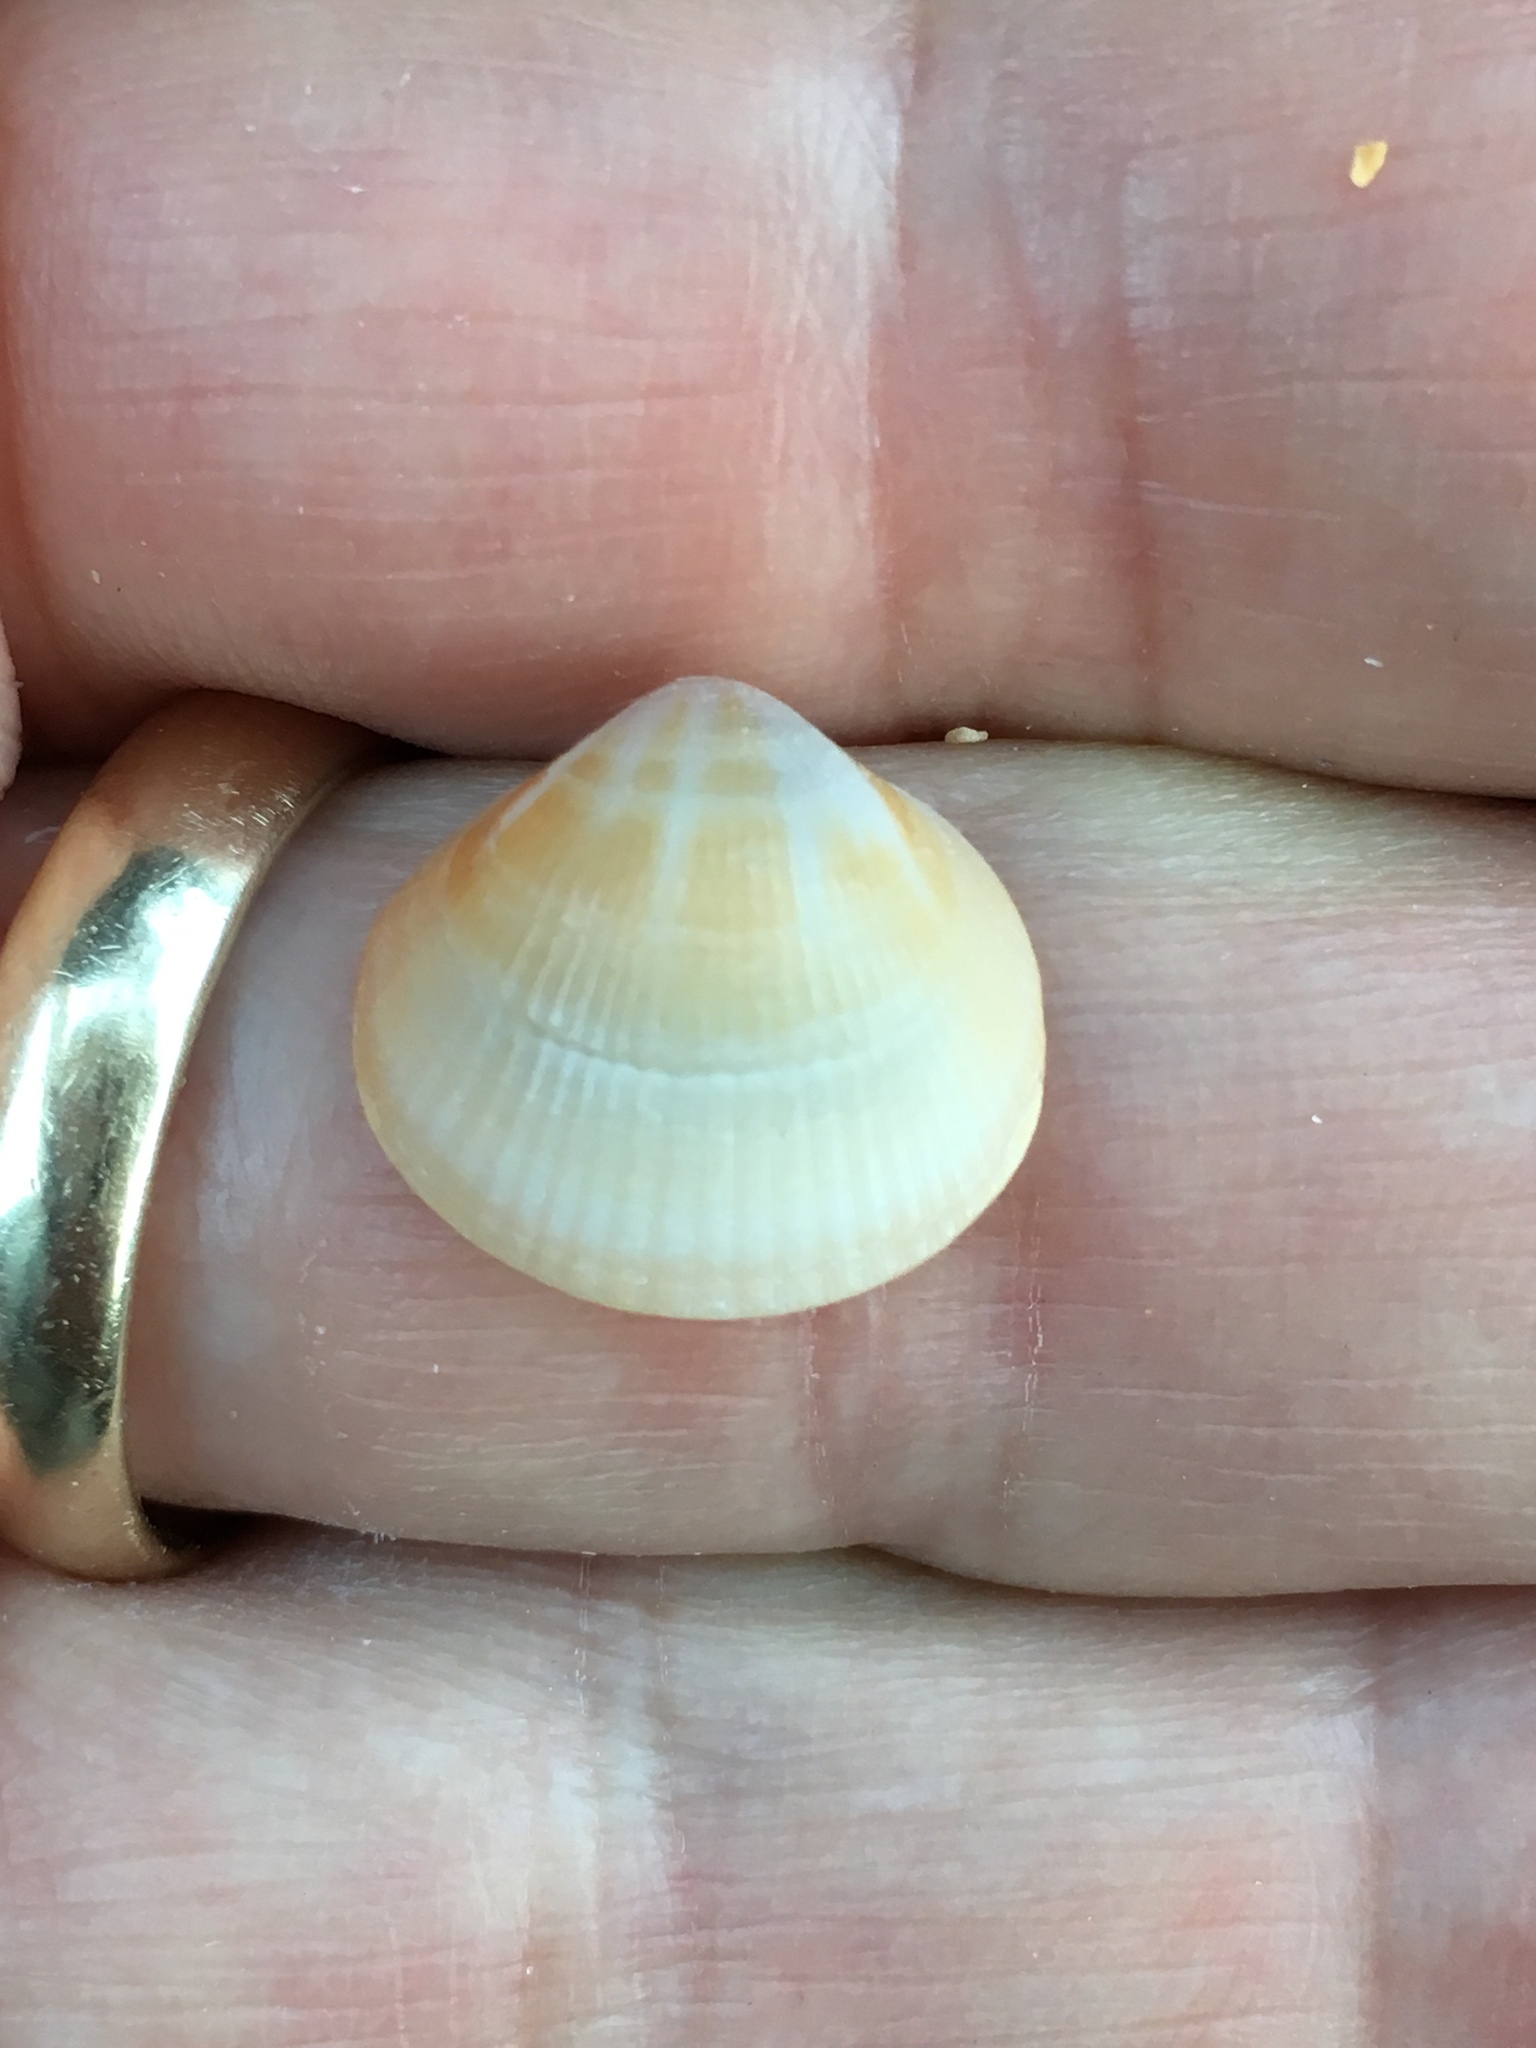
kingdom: Animalia
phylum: Mollusca
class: Bivalvia
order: Arcida
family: Glycymerididae
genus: Glycymeris
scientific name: Glycymeris spectralis
